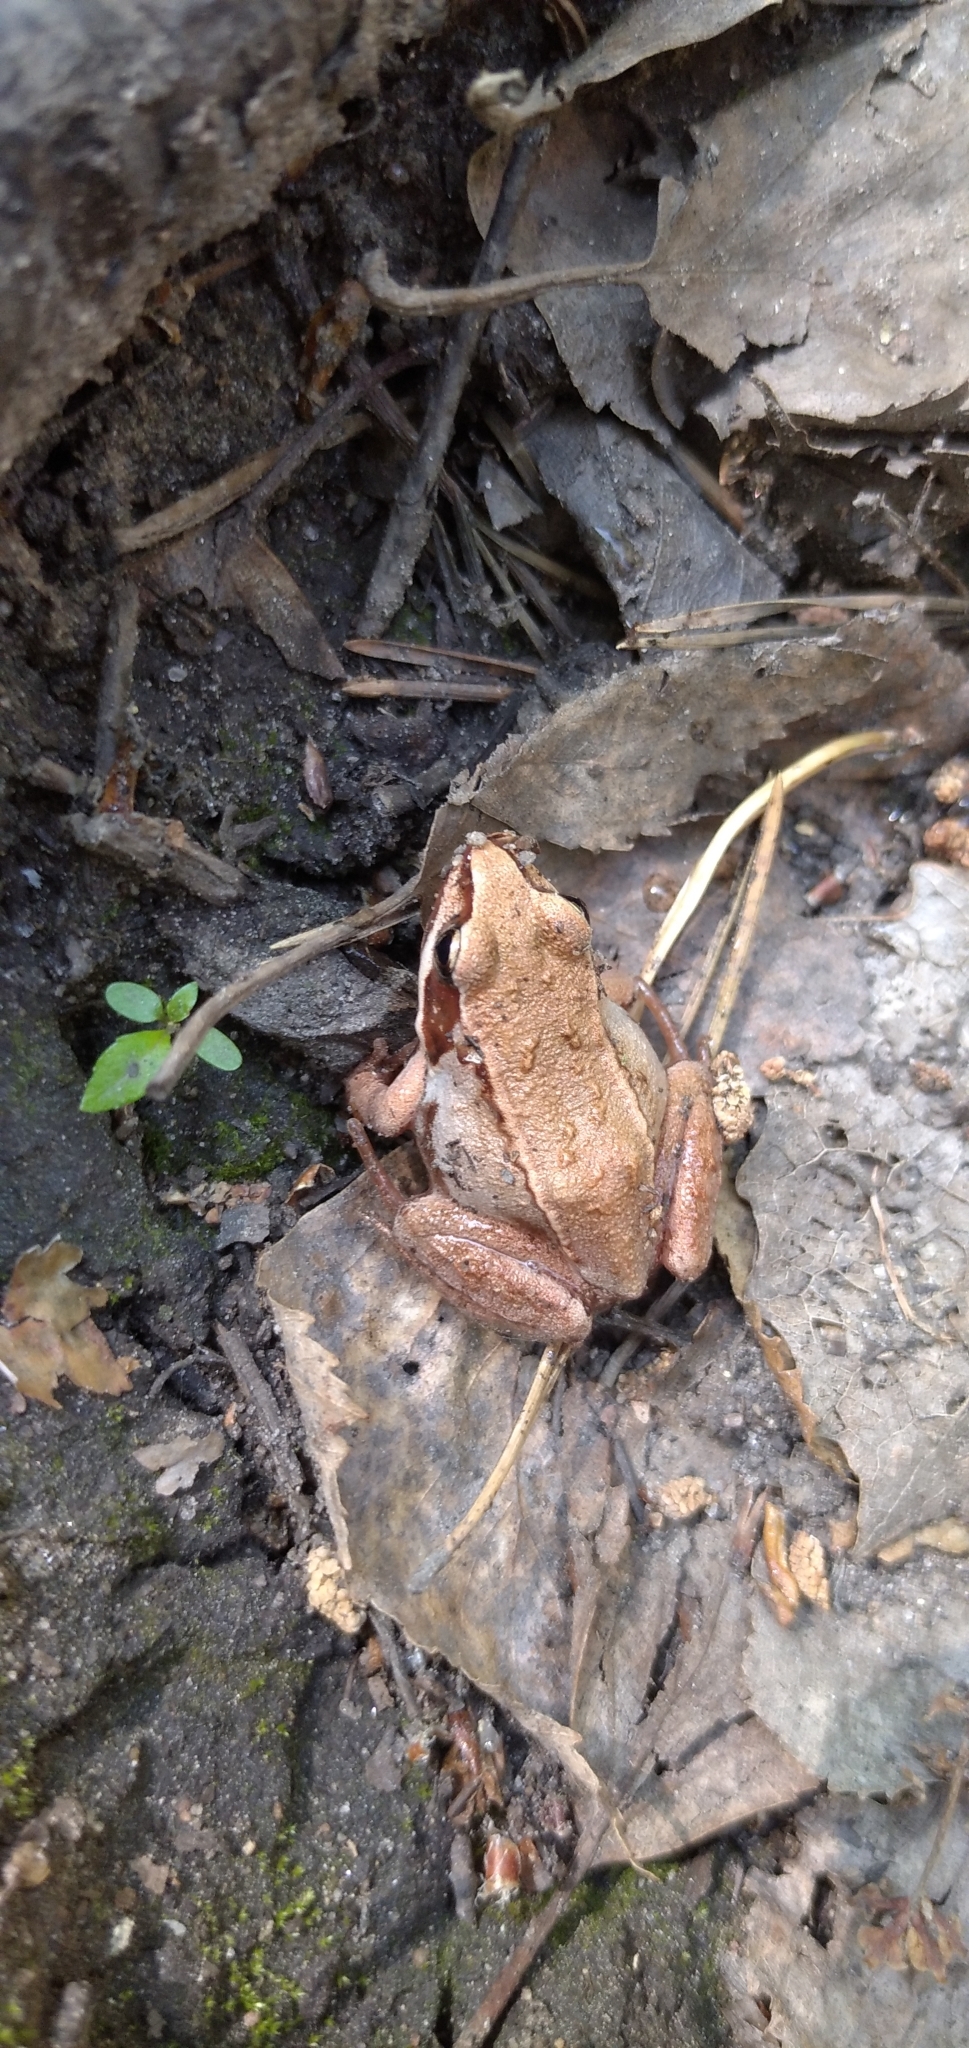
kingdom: Animalia
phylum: Chordata
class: Amphibia
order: Anura
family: Ranidae
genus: Rana
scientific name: Rana arvalis
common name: Moor frog
